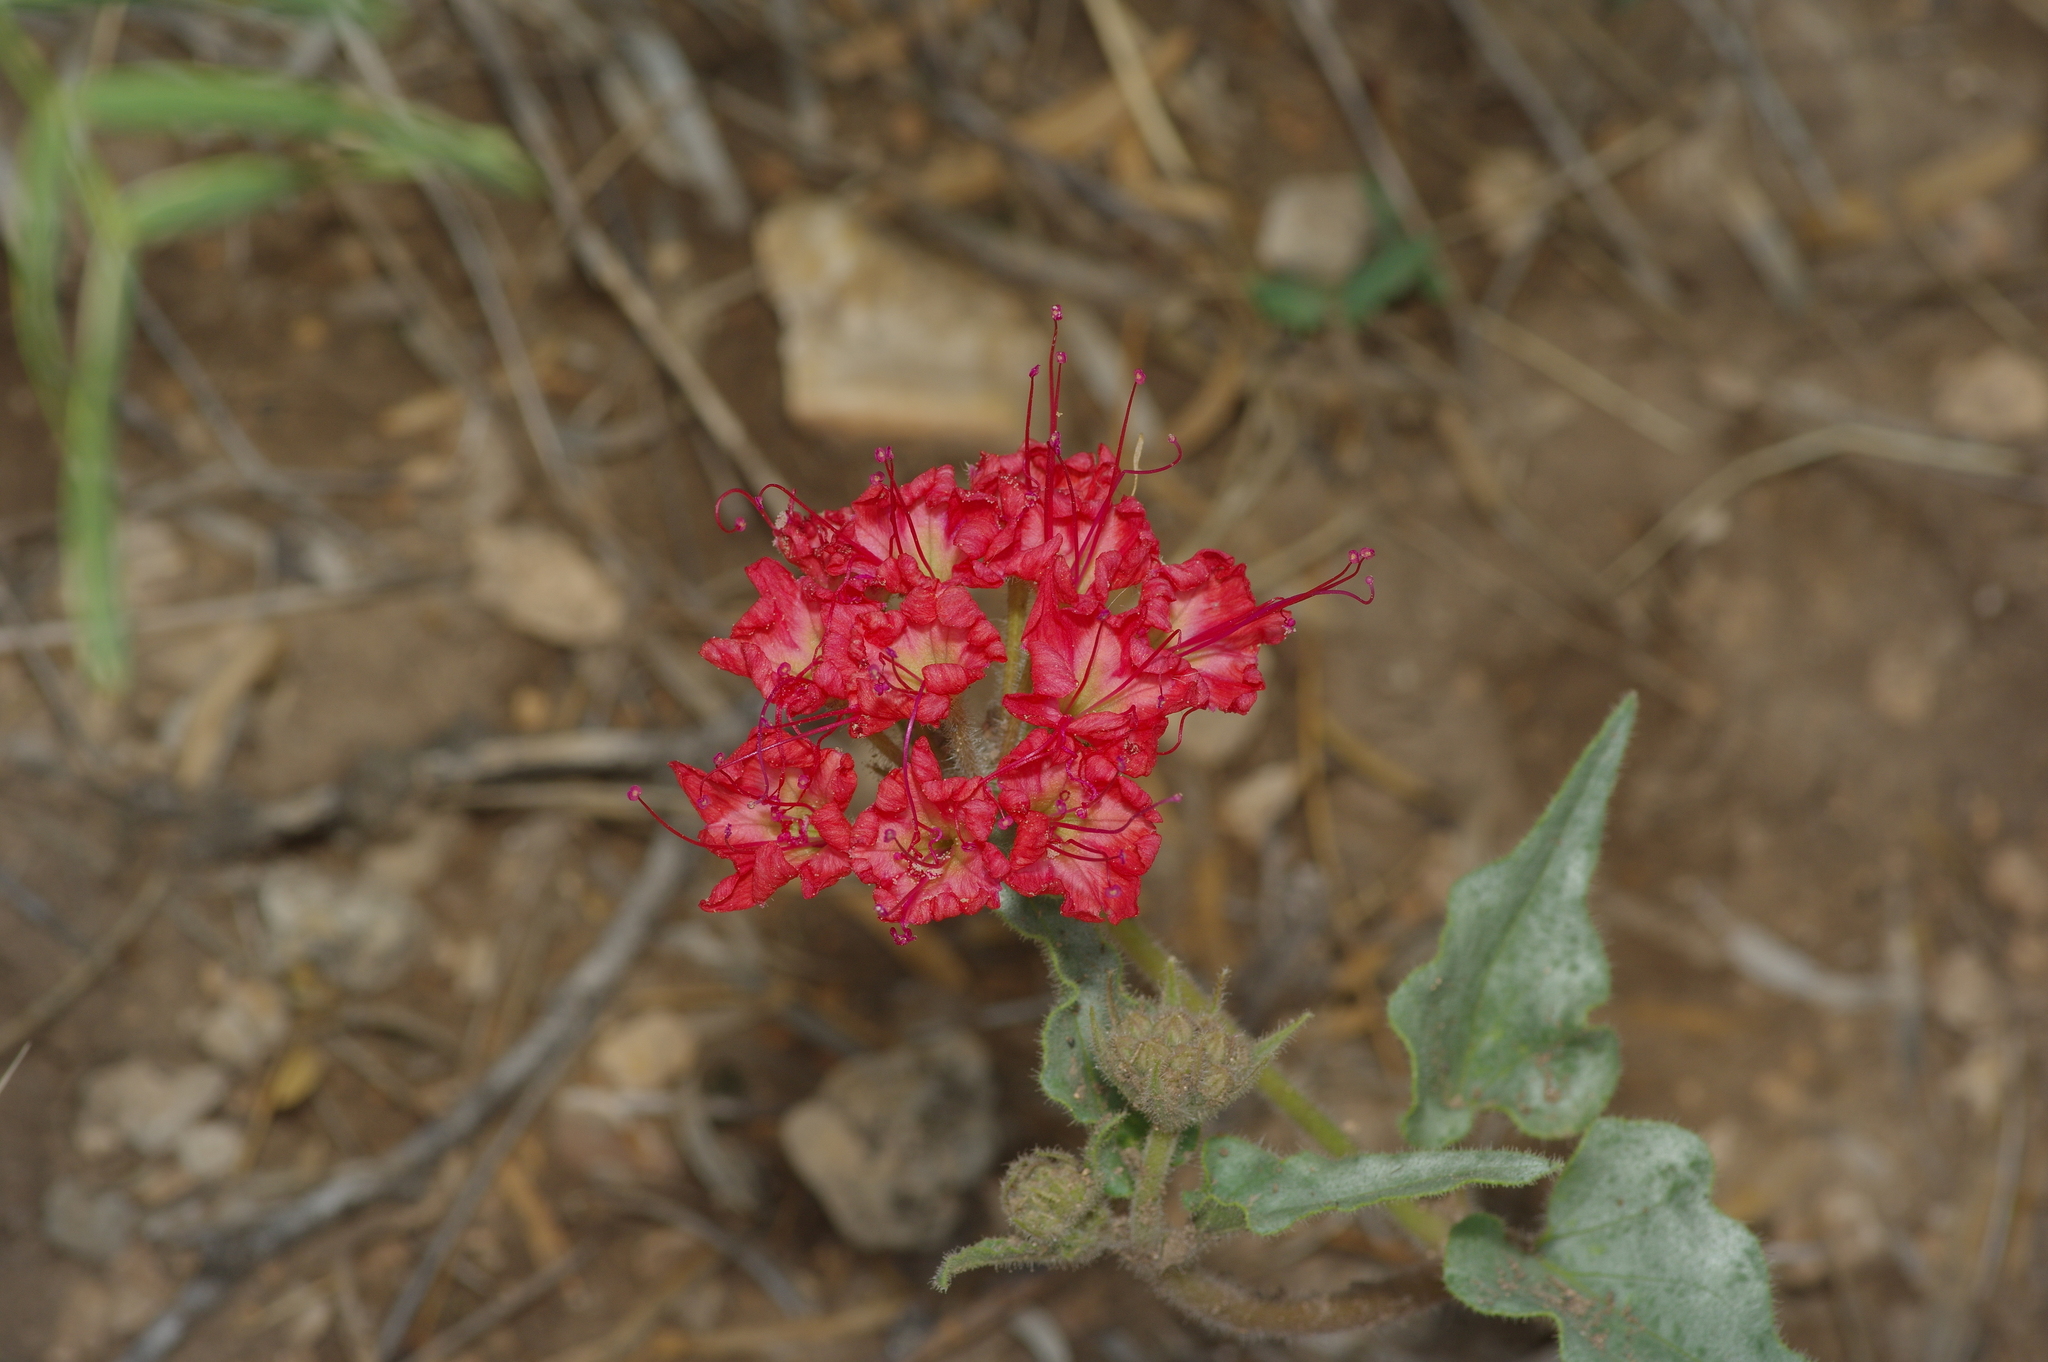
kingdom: Plantae
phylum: Tracheophyta
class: Magnoliopsida
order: Caryophyllales
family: Nyctaginaceae
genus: Nyctaginia
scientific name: Nyctaginia capitata
